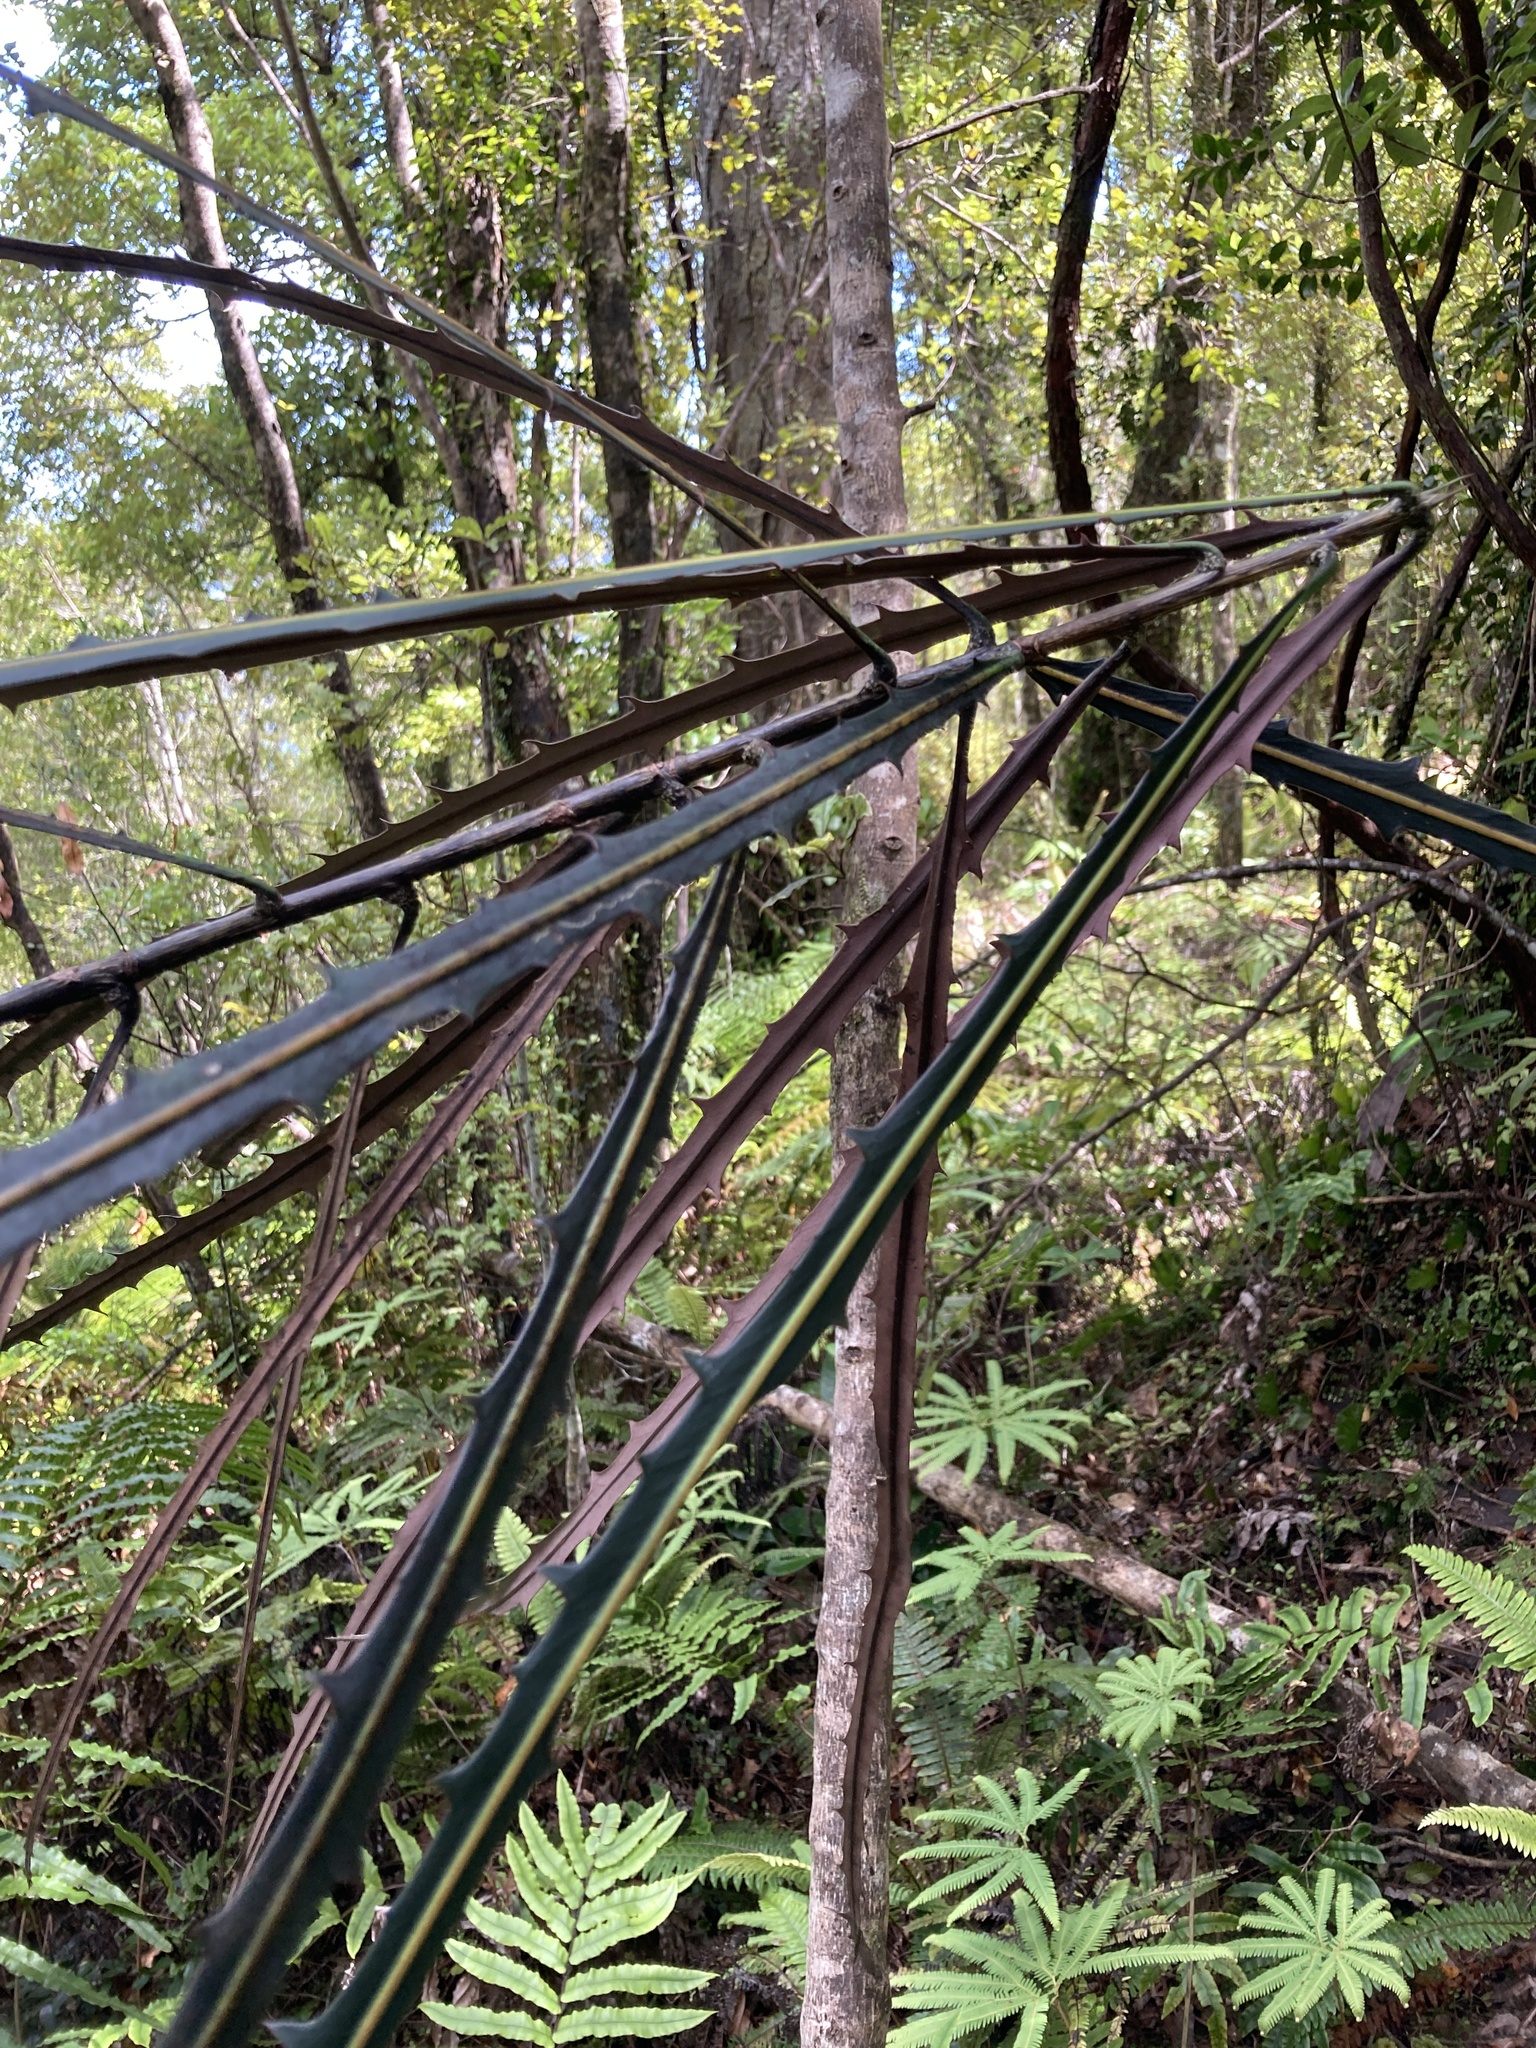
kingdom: Plantae
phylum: Tracheophyta
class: Magnoliopsida
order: Apiales
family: Araliaceae
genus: Pseudopanax
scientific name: Pseudopanax crassifolius
